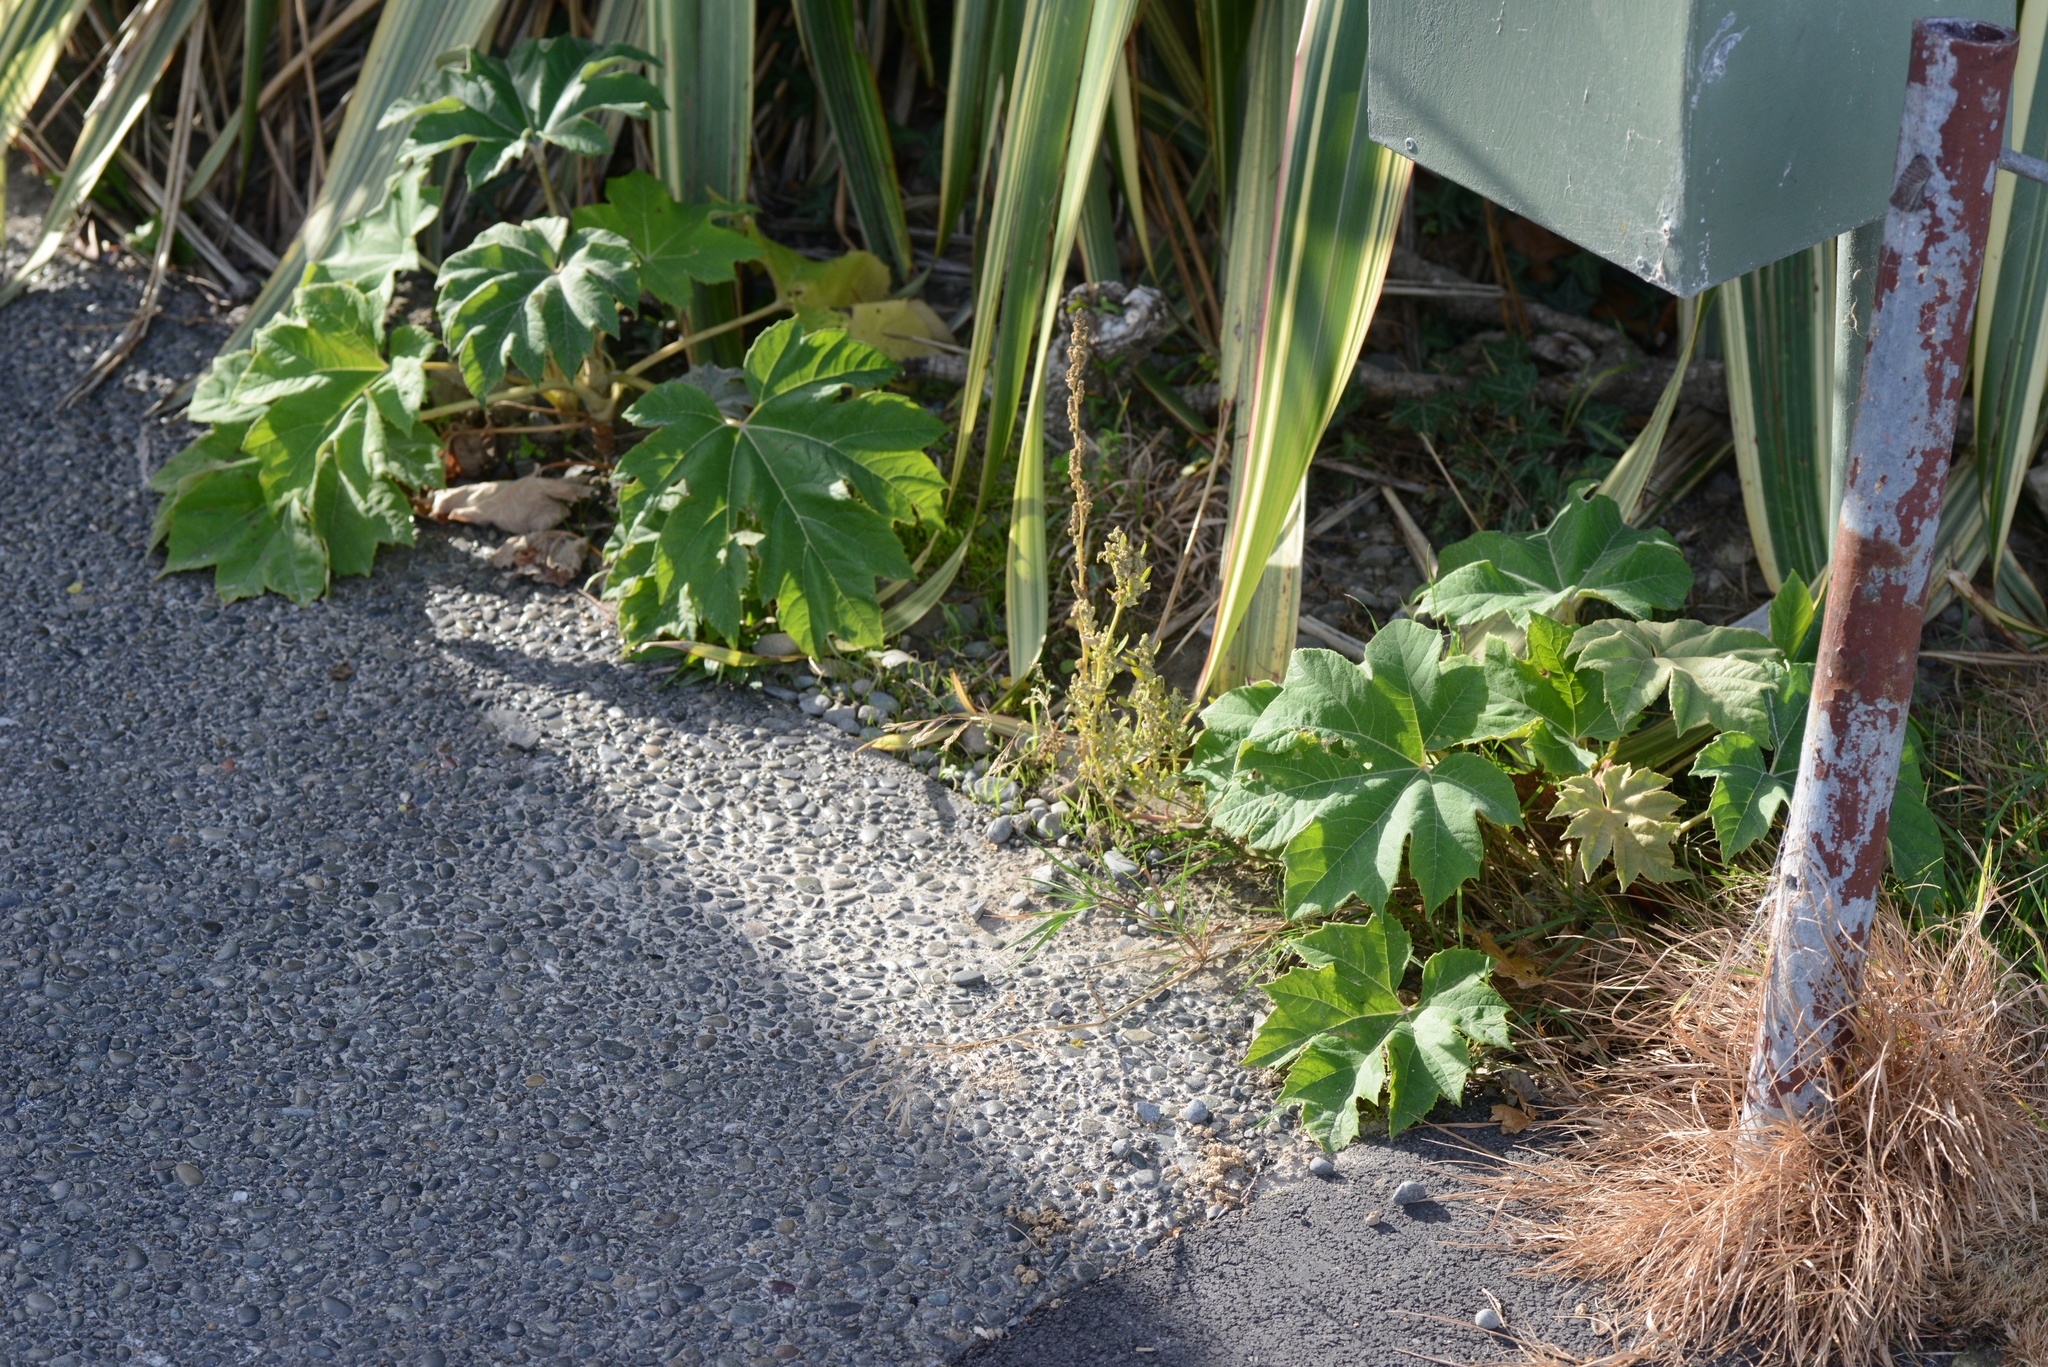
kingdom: Plantae
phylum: Tracheophyta
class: Magnoliopsida
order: Apiales
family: Araliaceae
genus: Tetrapanax
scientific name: Tetrapanax papyrifer
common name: Rice-paper plant
